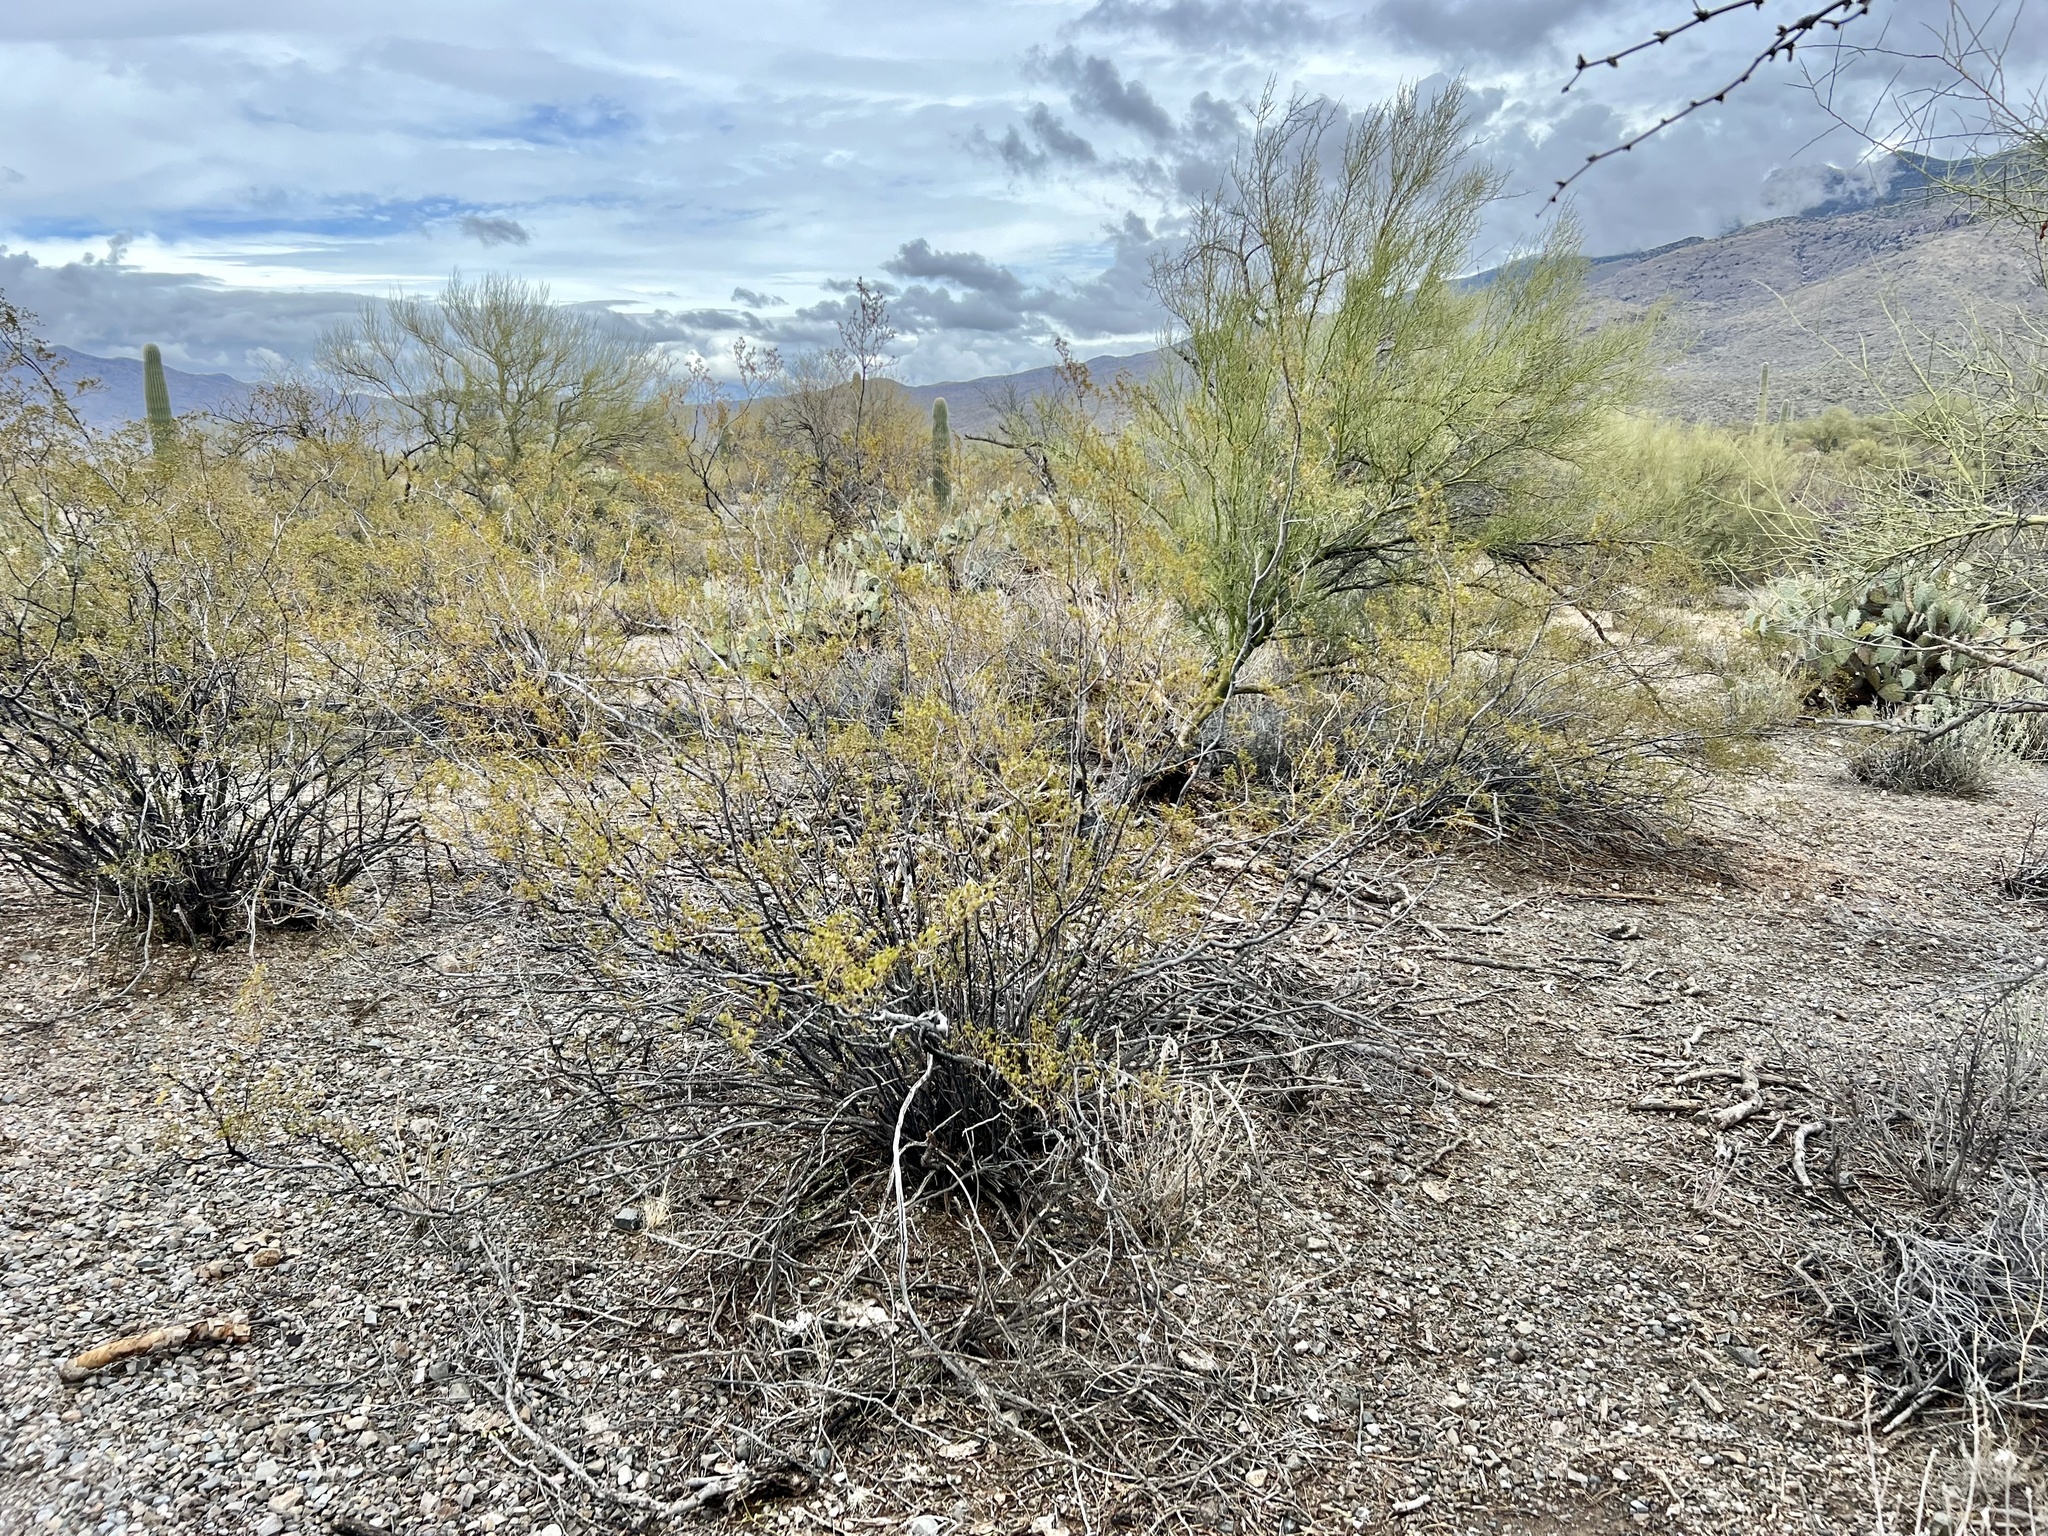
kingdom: Plantae
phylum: Tracheophyta
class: Magnoliopsida
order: Zygophyllales
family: Zygophyllaceae
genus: Larrea
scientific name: Larrea tridentata
